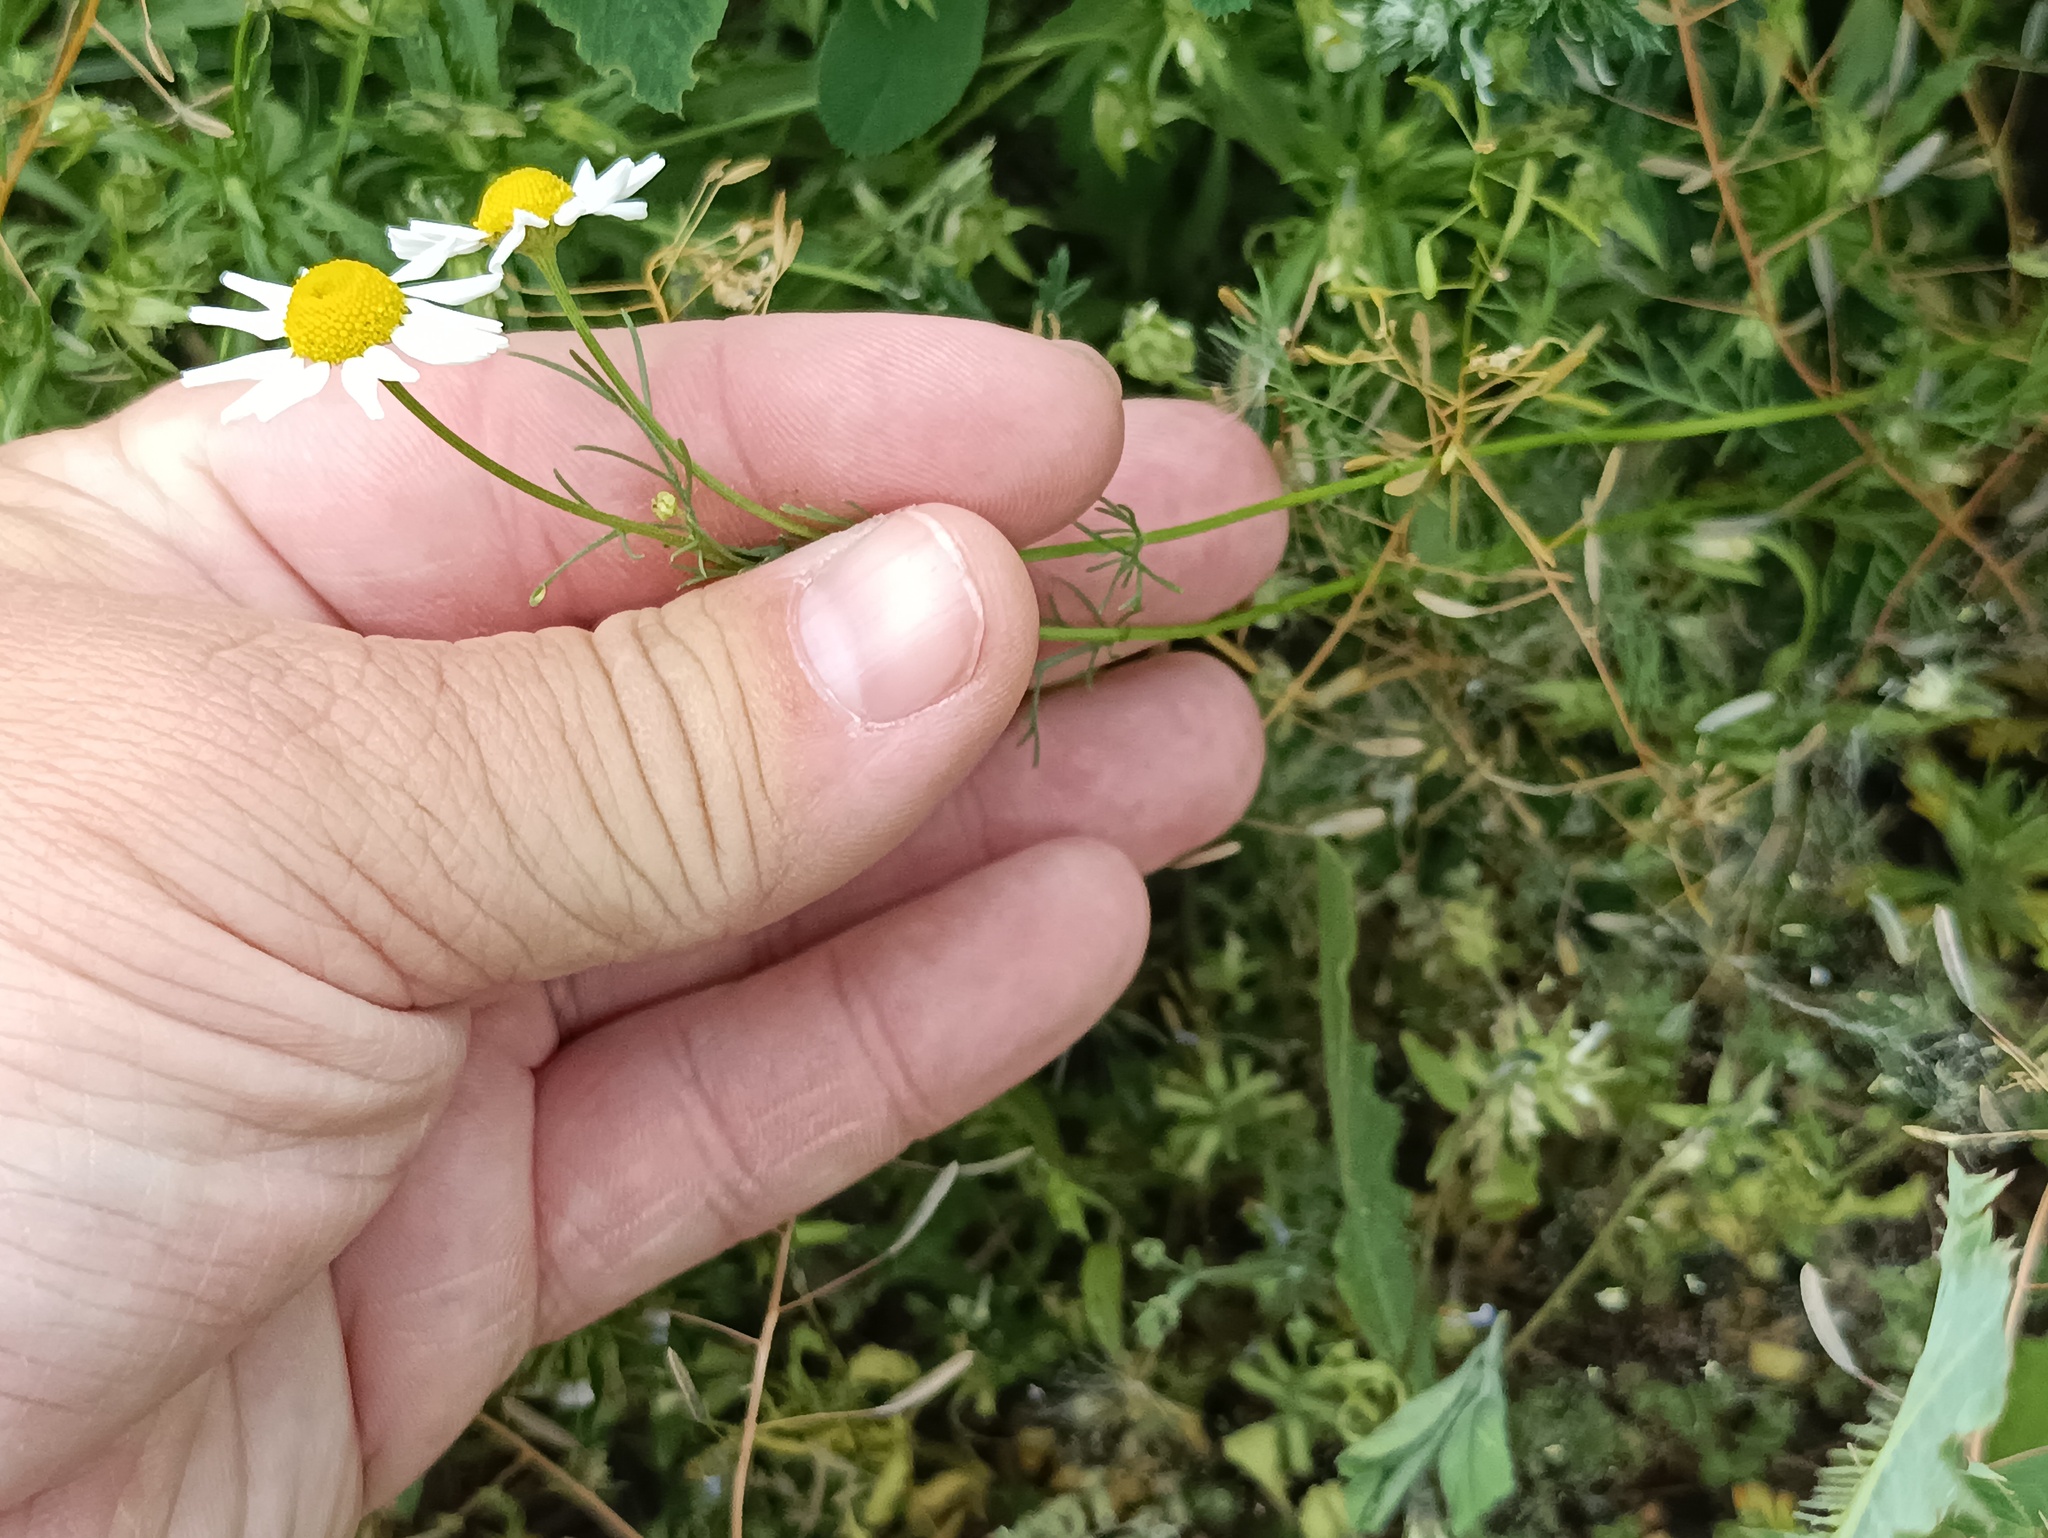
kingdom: Plantae
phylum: Tracheophyta
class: Magnoliopsida
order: Asterales
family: Asteraceae
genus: Tripleurospermum
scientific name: Tripleurospermum inodorum
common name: Scentless mayweed
